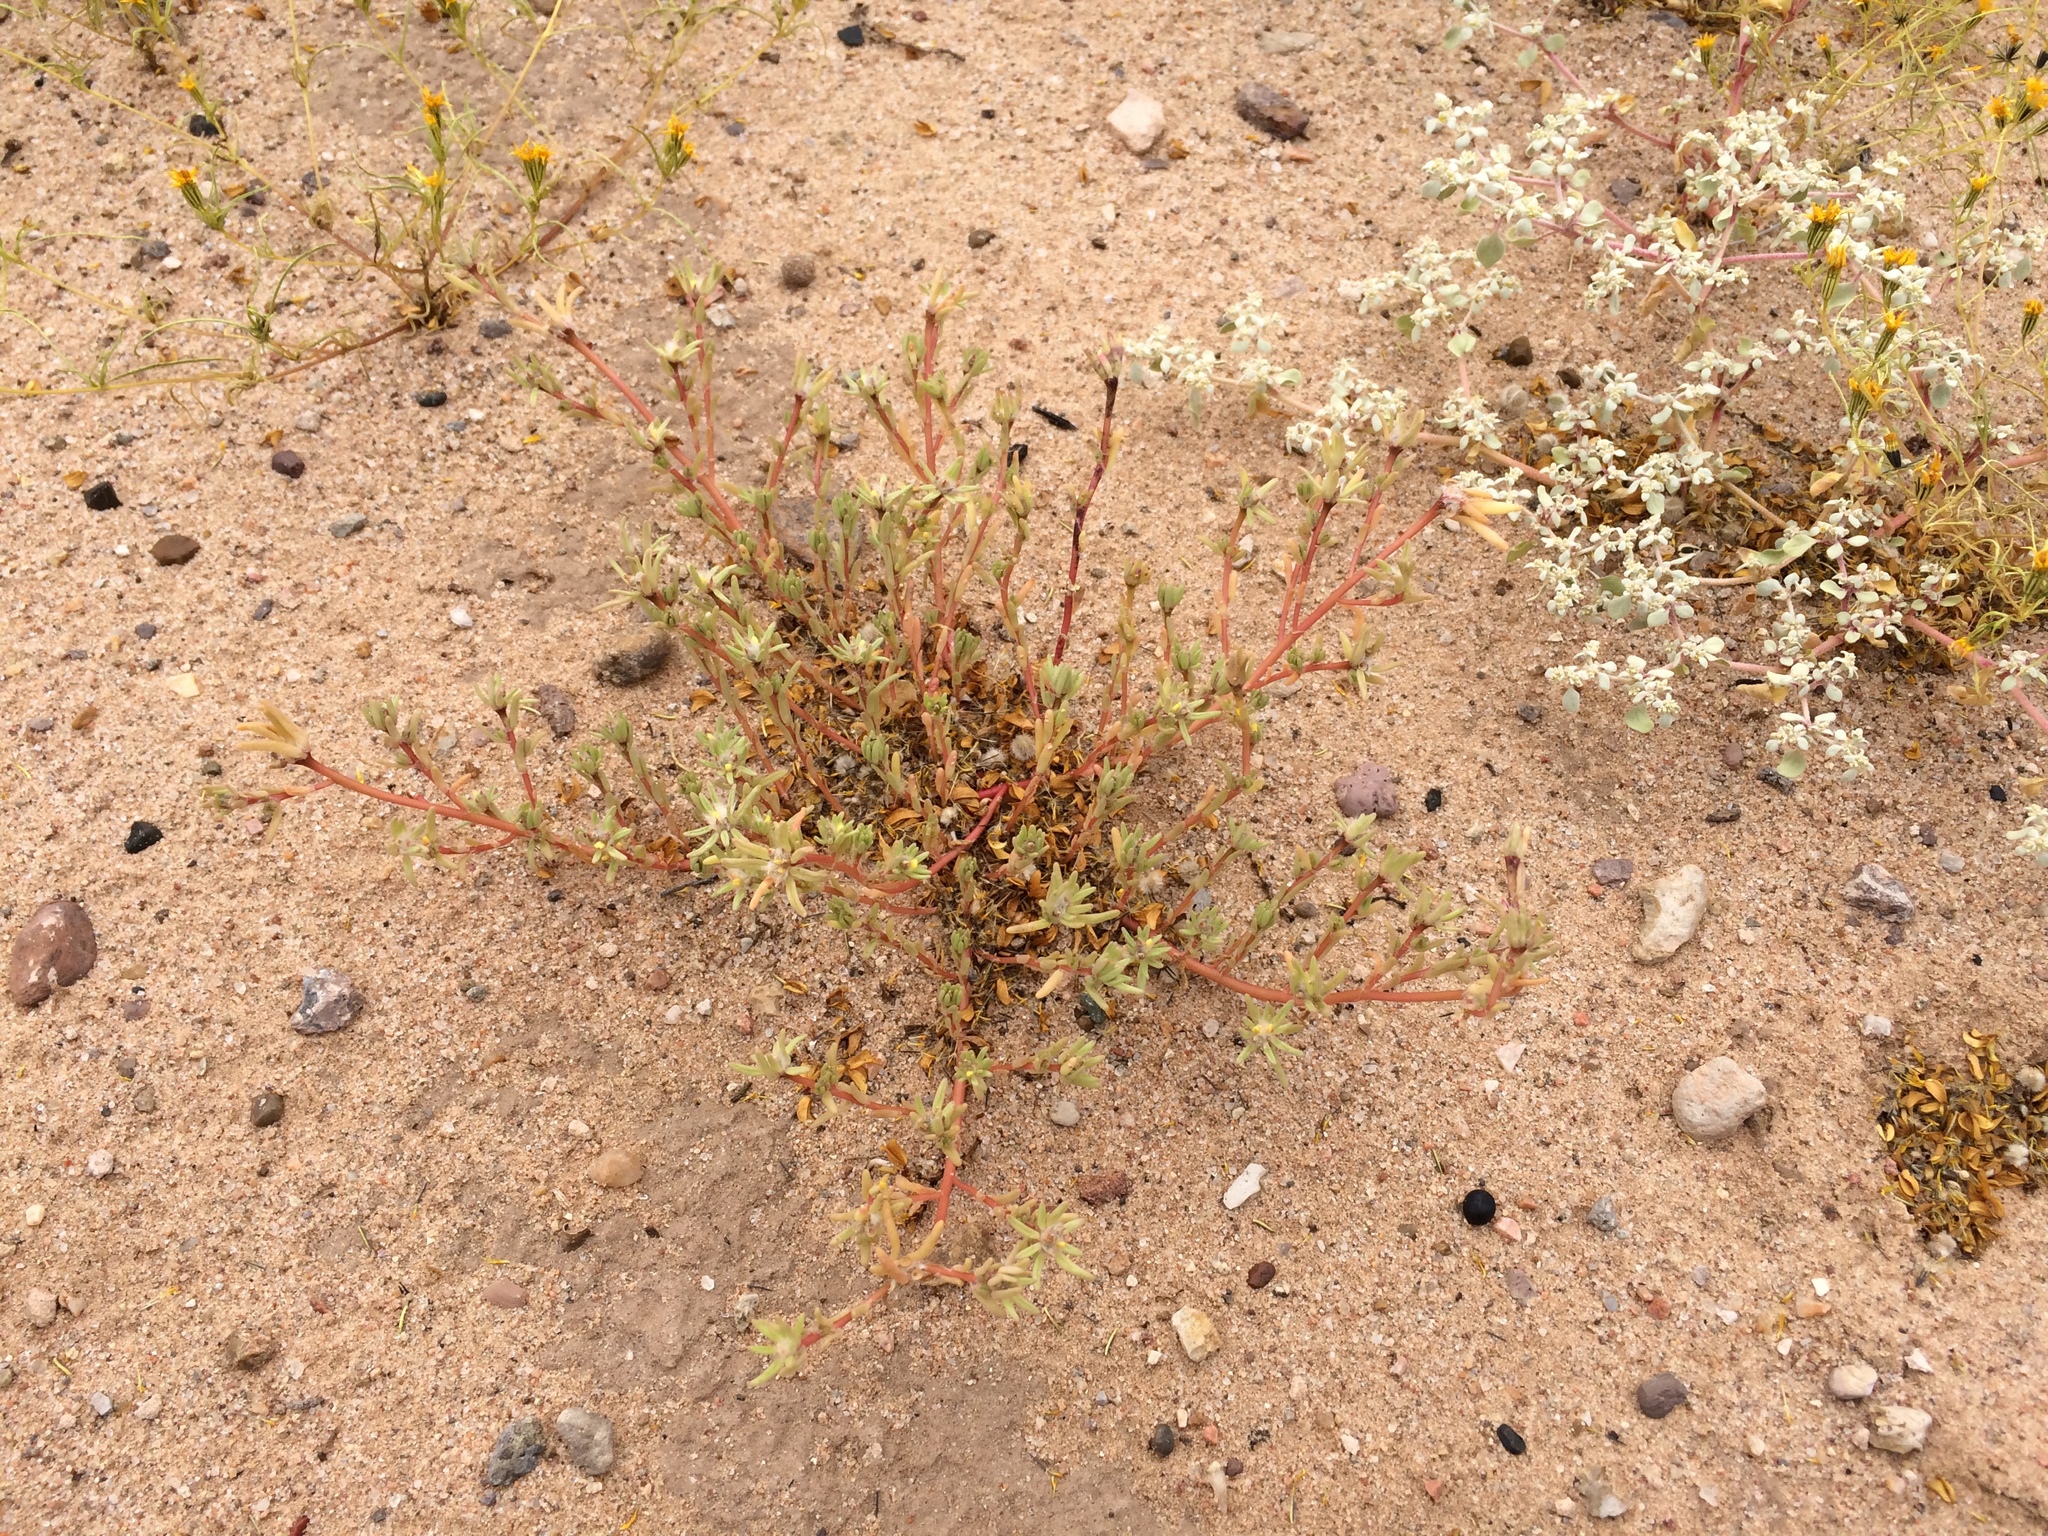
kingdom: Plantae
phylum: Tracheophyta
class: Magnoliopsida
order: Caryophyllales
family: Portulacaceae
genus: Portulaca
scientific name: Portulaca halimoides
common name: Silk cotton purslane
